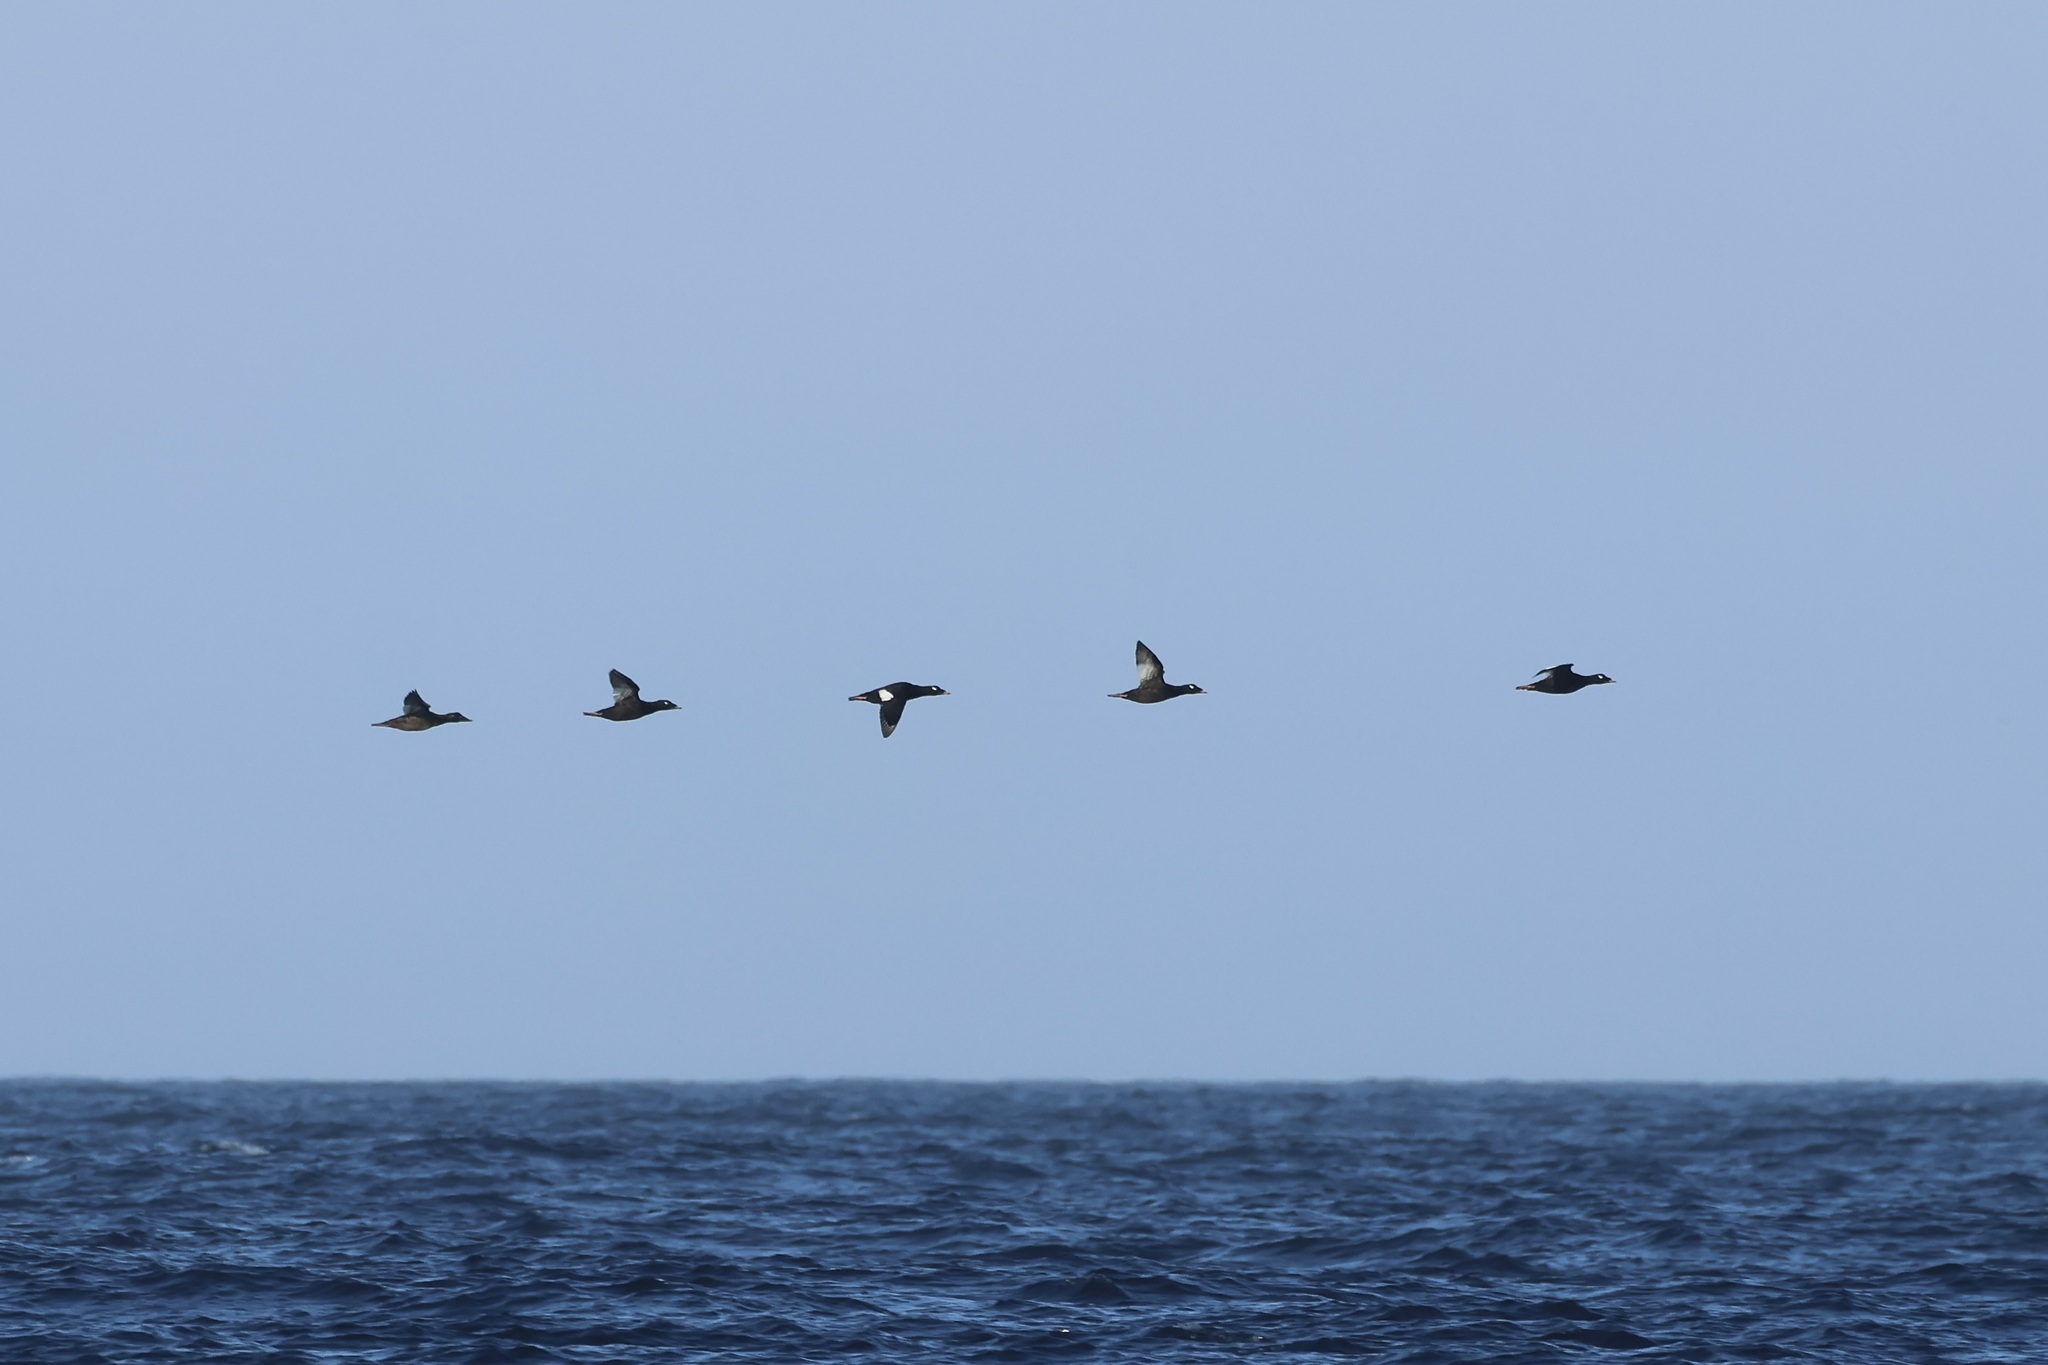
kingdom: Animalia
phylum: Chordata
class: Aves
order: Anseriformes
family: Anatidae
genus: Melanitta
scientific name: Melanitta deglandi
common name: White-winged scoter
